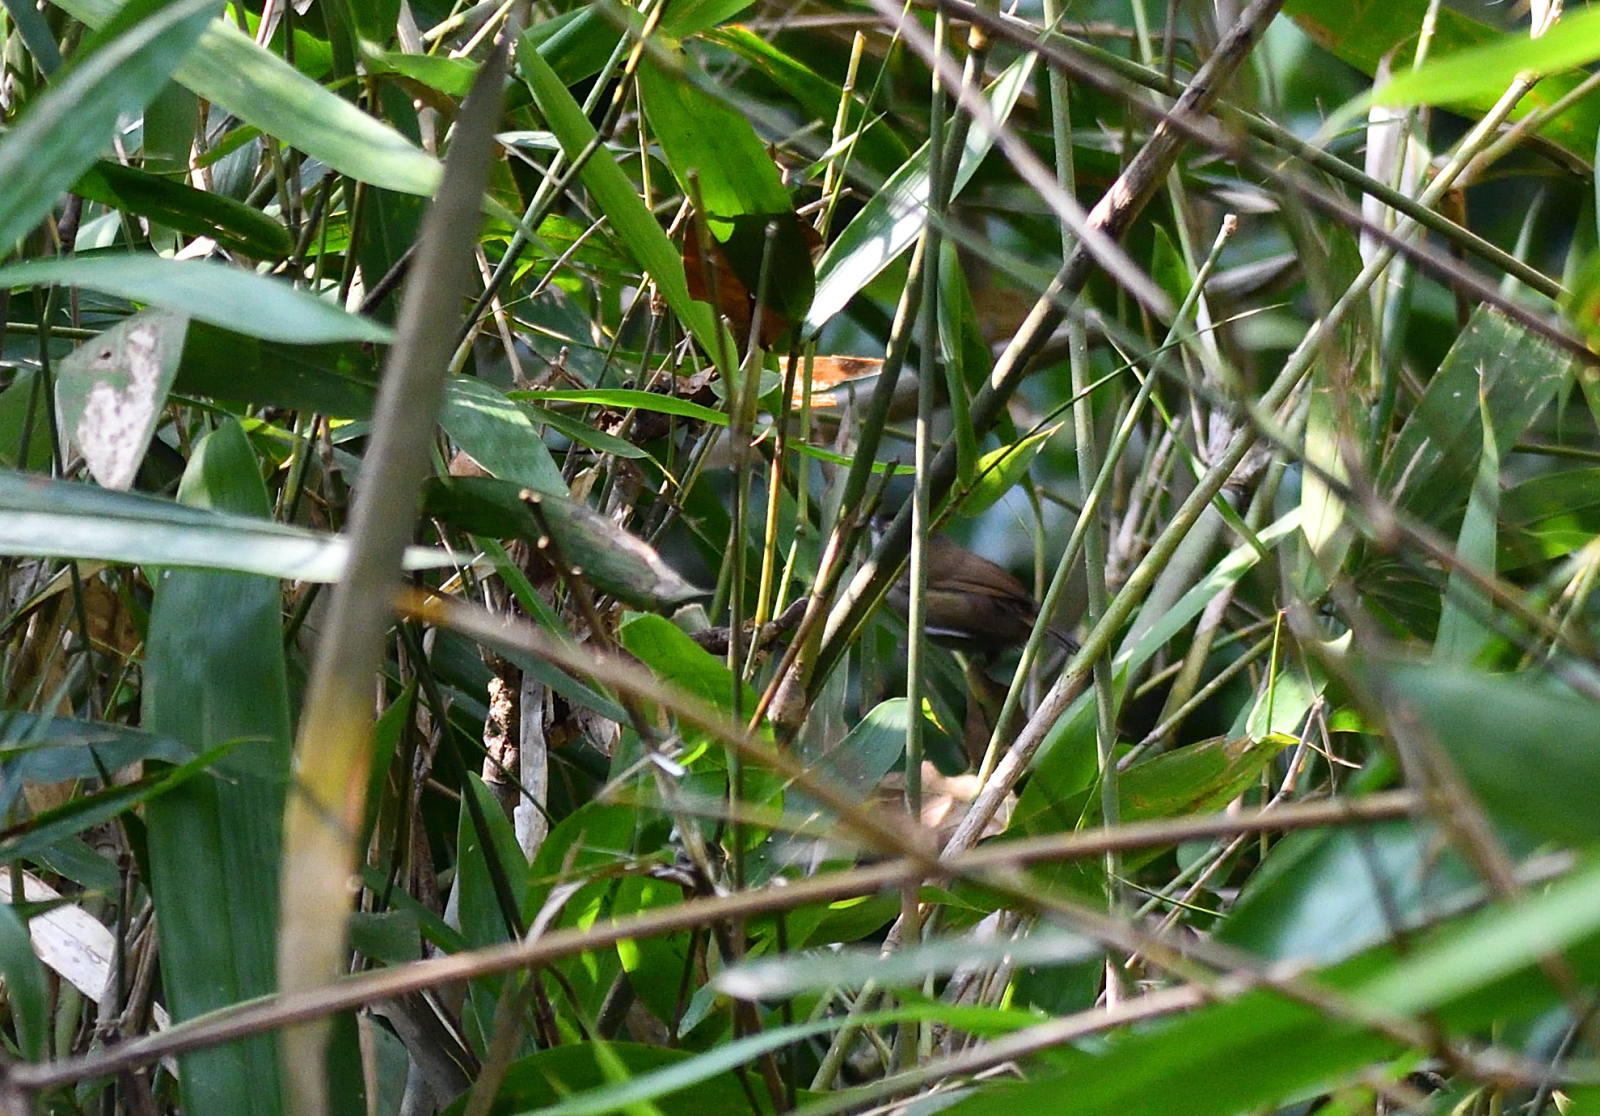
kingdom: Animalia
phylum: Chordata
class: Aves
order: Passeriformes
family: Timaliidae
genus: Rhopocichla
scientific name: Rhopocichla atriceps
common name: Dark-fronted babbler
